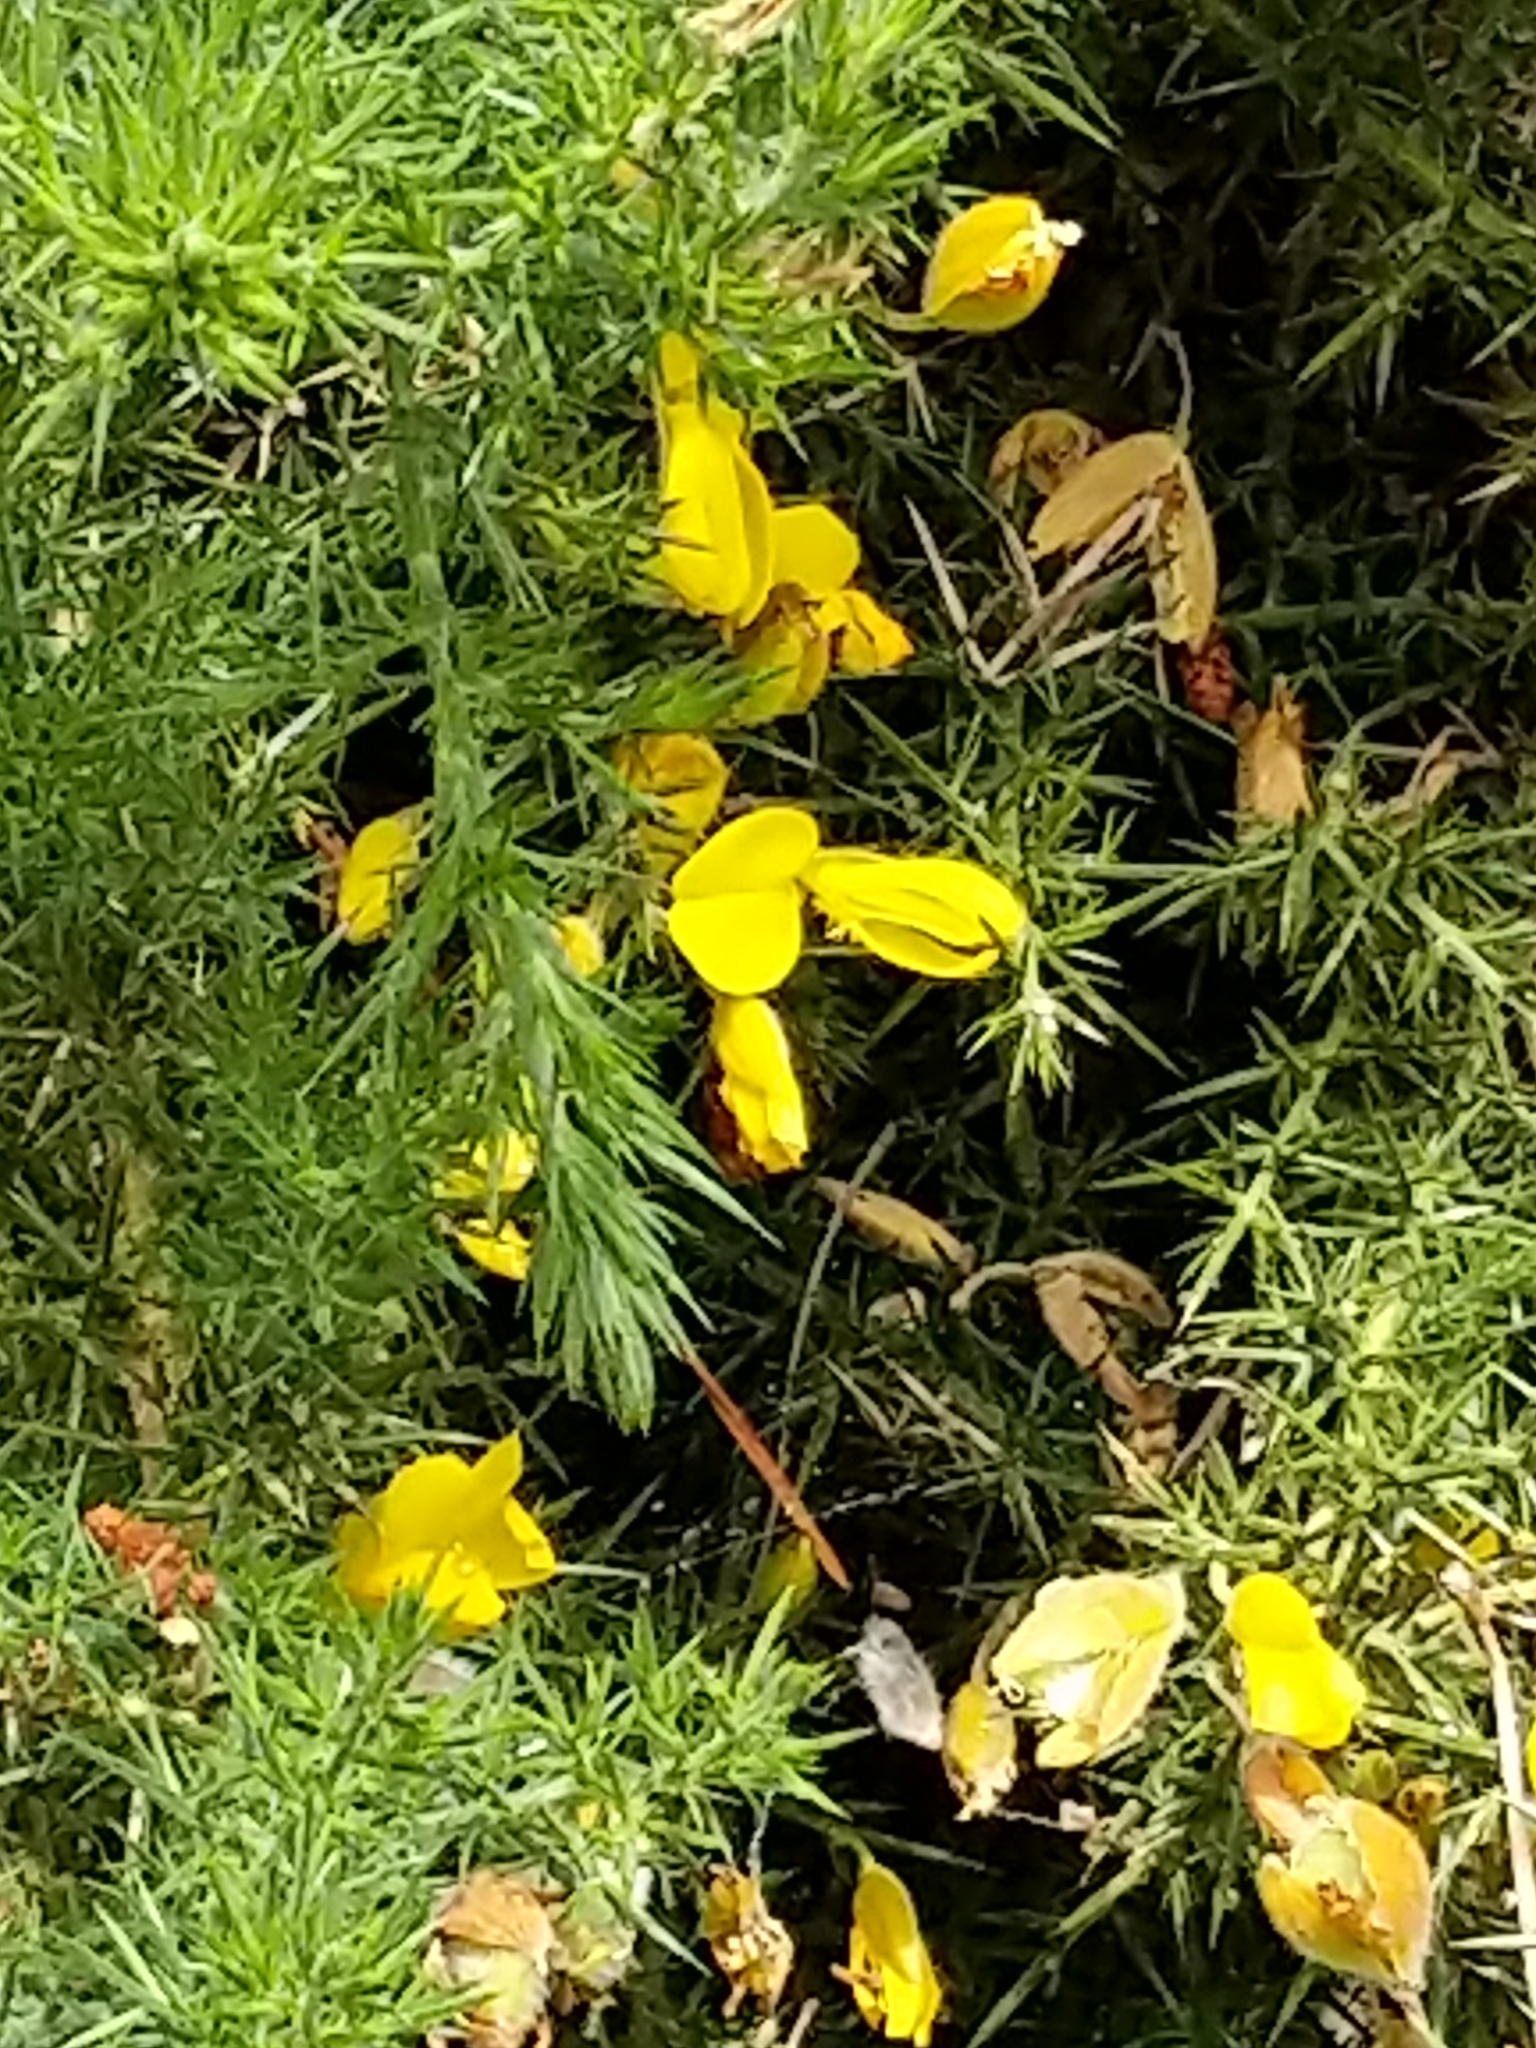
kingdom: Plantae
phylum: Tracheophyta
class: Magnoliopsida
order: Fabales
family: Fabaceae
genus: Ulex
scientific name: Ulex europaeus
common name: Common gorse
